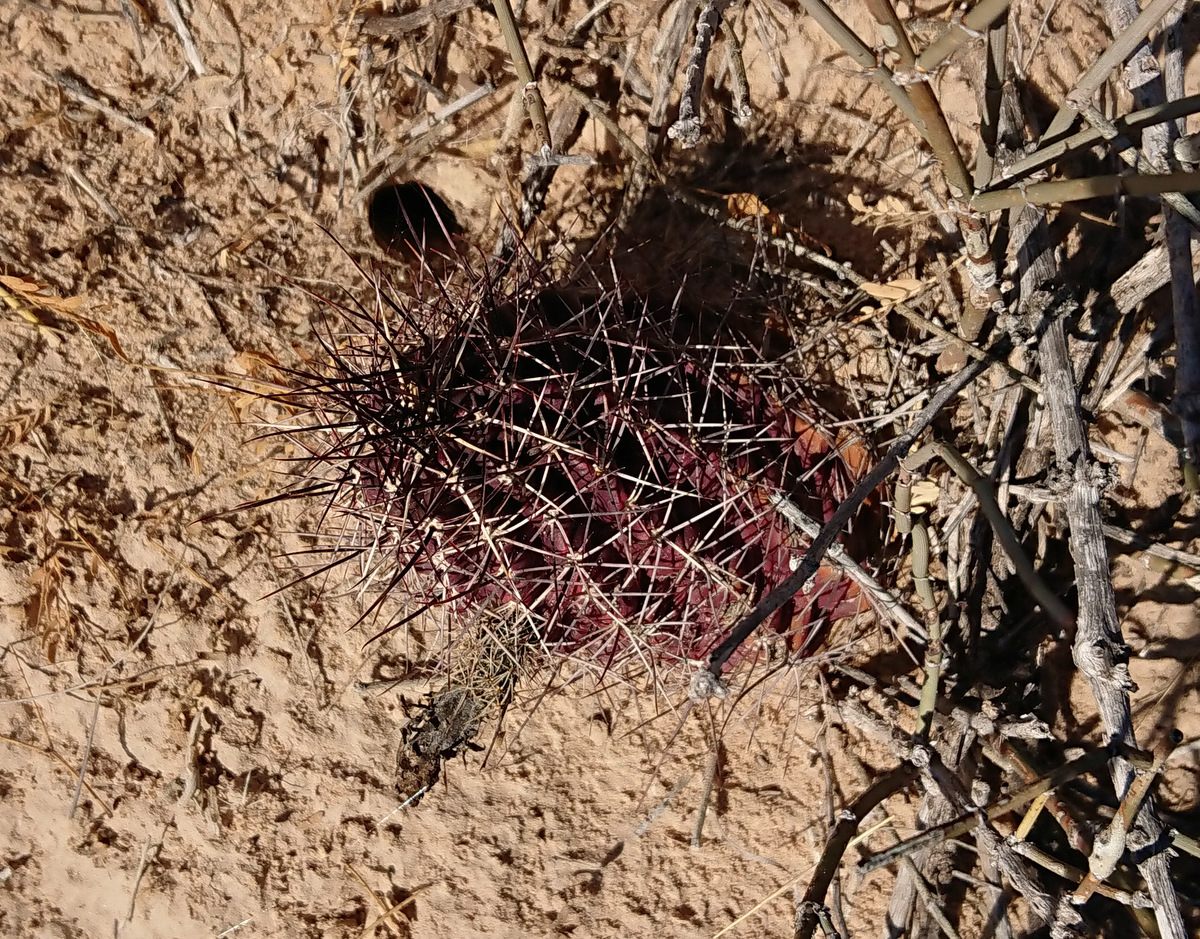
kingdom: Plantae
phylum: Tracheophyta
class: Magnoliopsida
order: Caryophyllales
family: Cactaceae
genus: Echinocereus
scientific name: Echinocereus fendleri
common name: Fendler's hedgehog cactus
